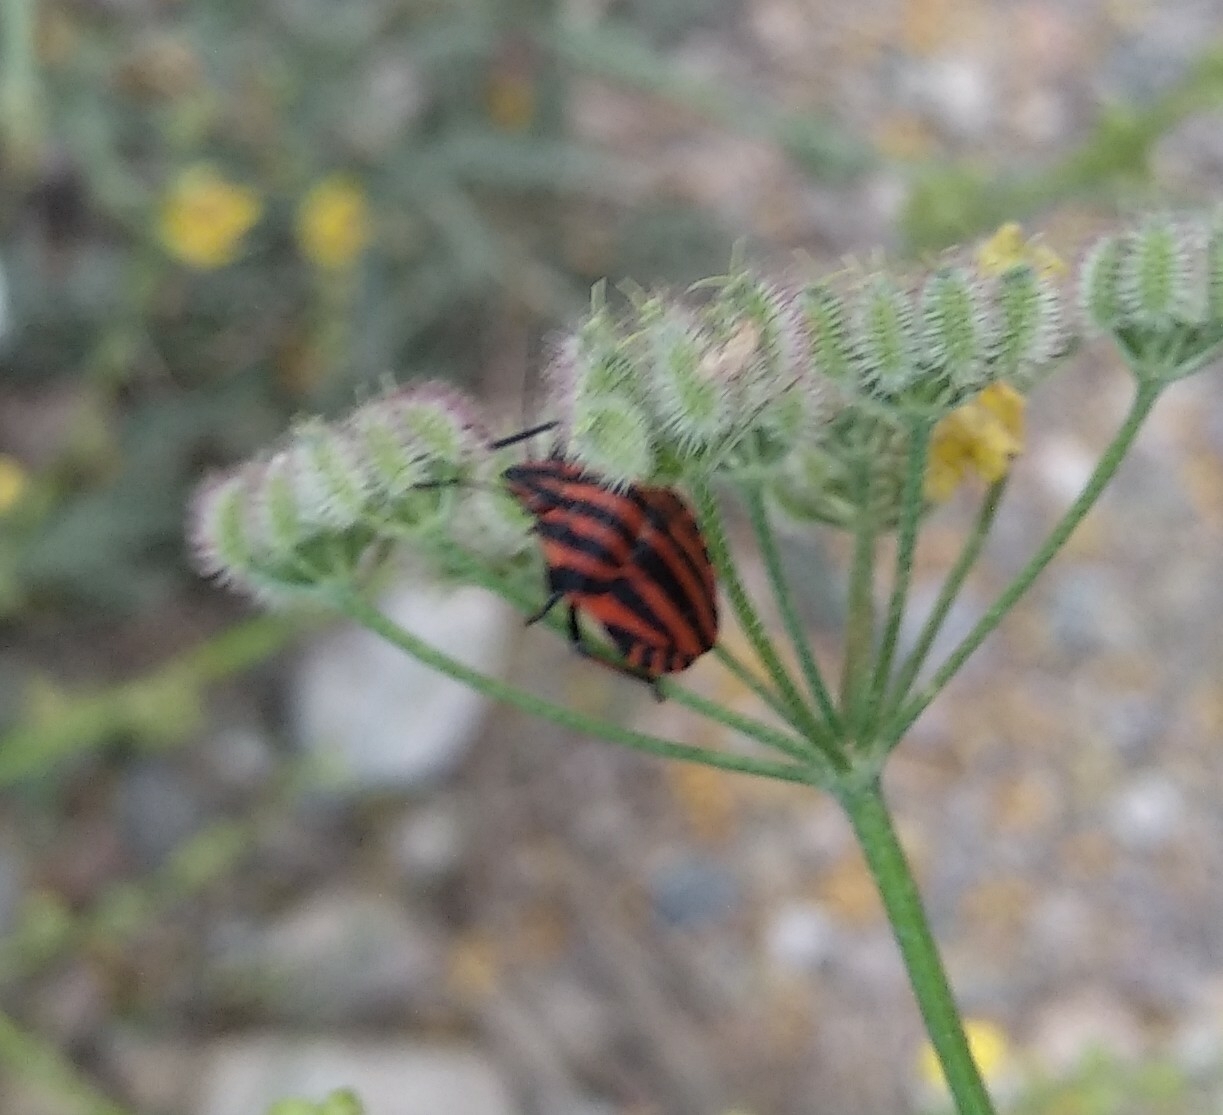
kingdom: Animalia
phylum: Arthropoda
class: Insecta
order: Hemiptera
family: Pentatomidae
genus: Graphosoma
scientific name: Graphosoma italicum
